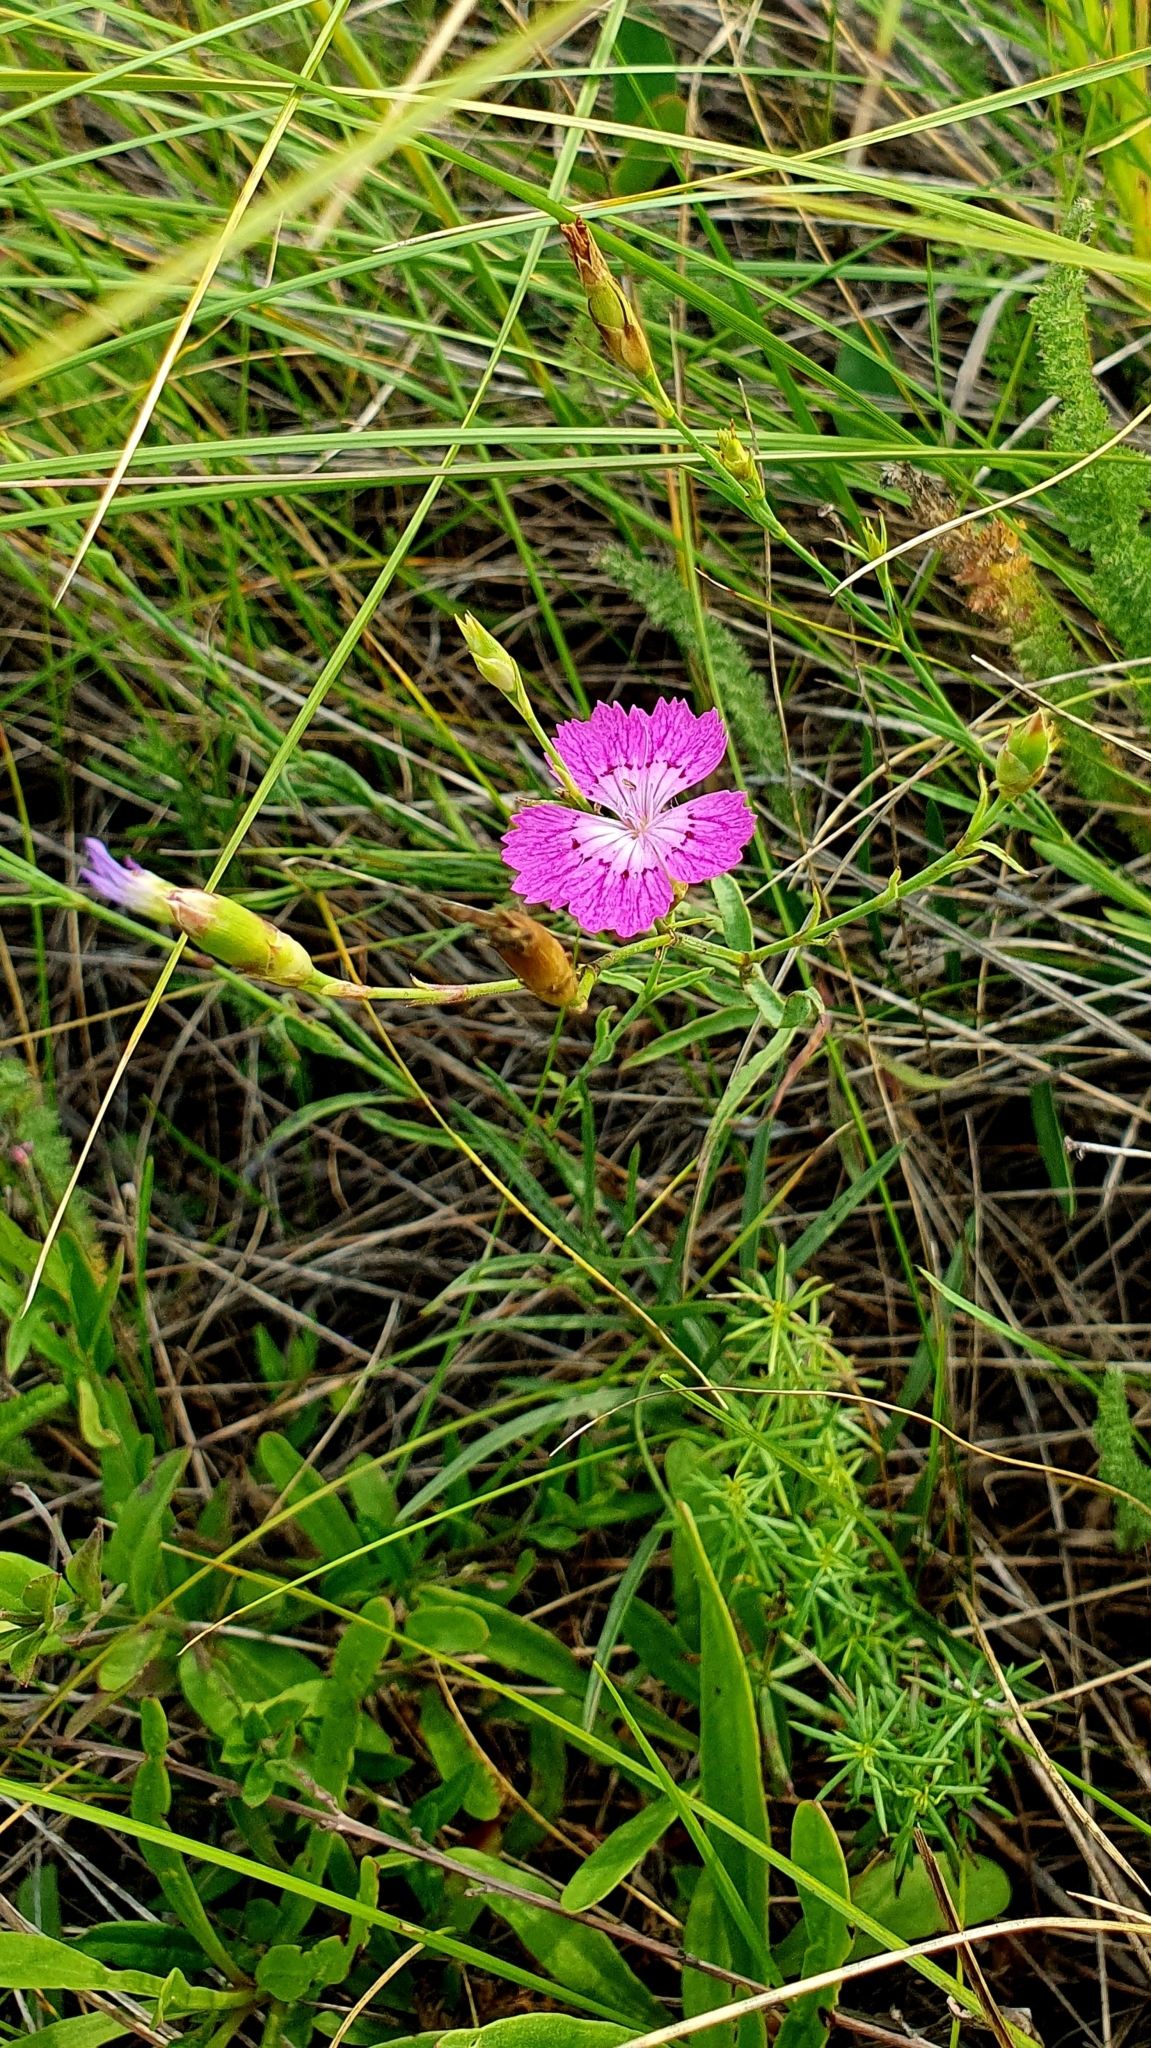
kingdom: Plantae
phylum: Tracheophyta
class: Magnoliopsida
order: Caryophyllales
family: Caryophyllaceae
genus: Dianthus
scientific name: Dianthus chinensis
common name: Rainbow pink
